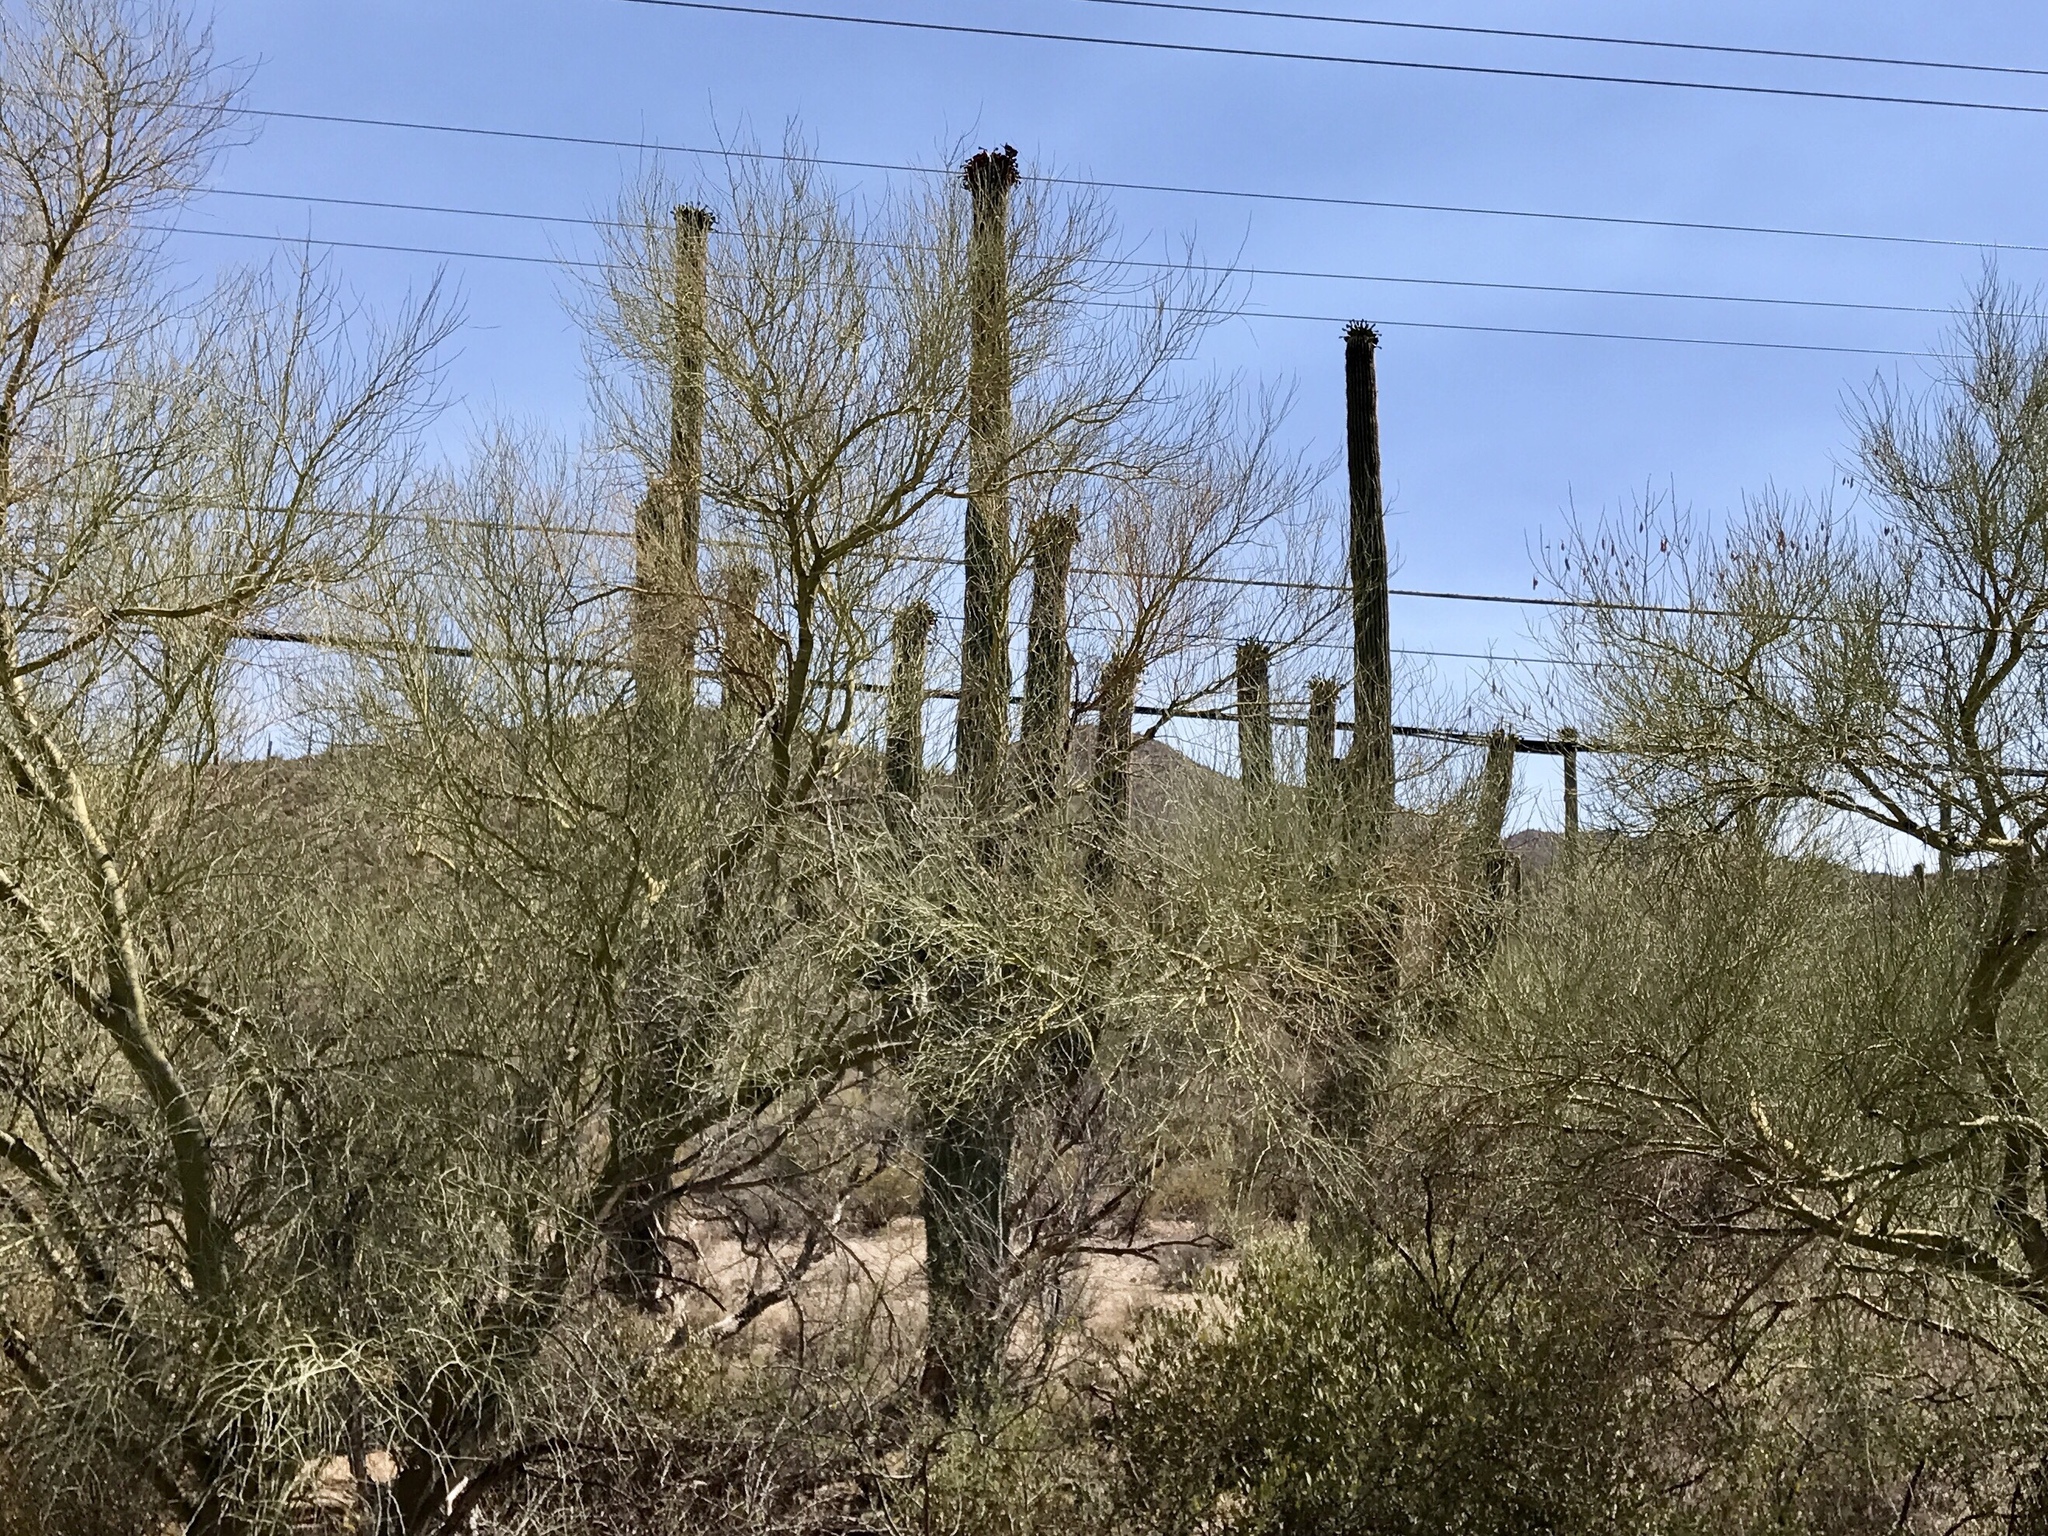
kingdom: Plantae
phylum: Tracheophyta
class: Magnoliopsida
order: Caryophyllales
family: Cactaceae
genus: Carnegiea
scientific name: Carnegiea gigantea
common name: Saguaro
